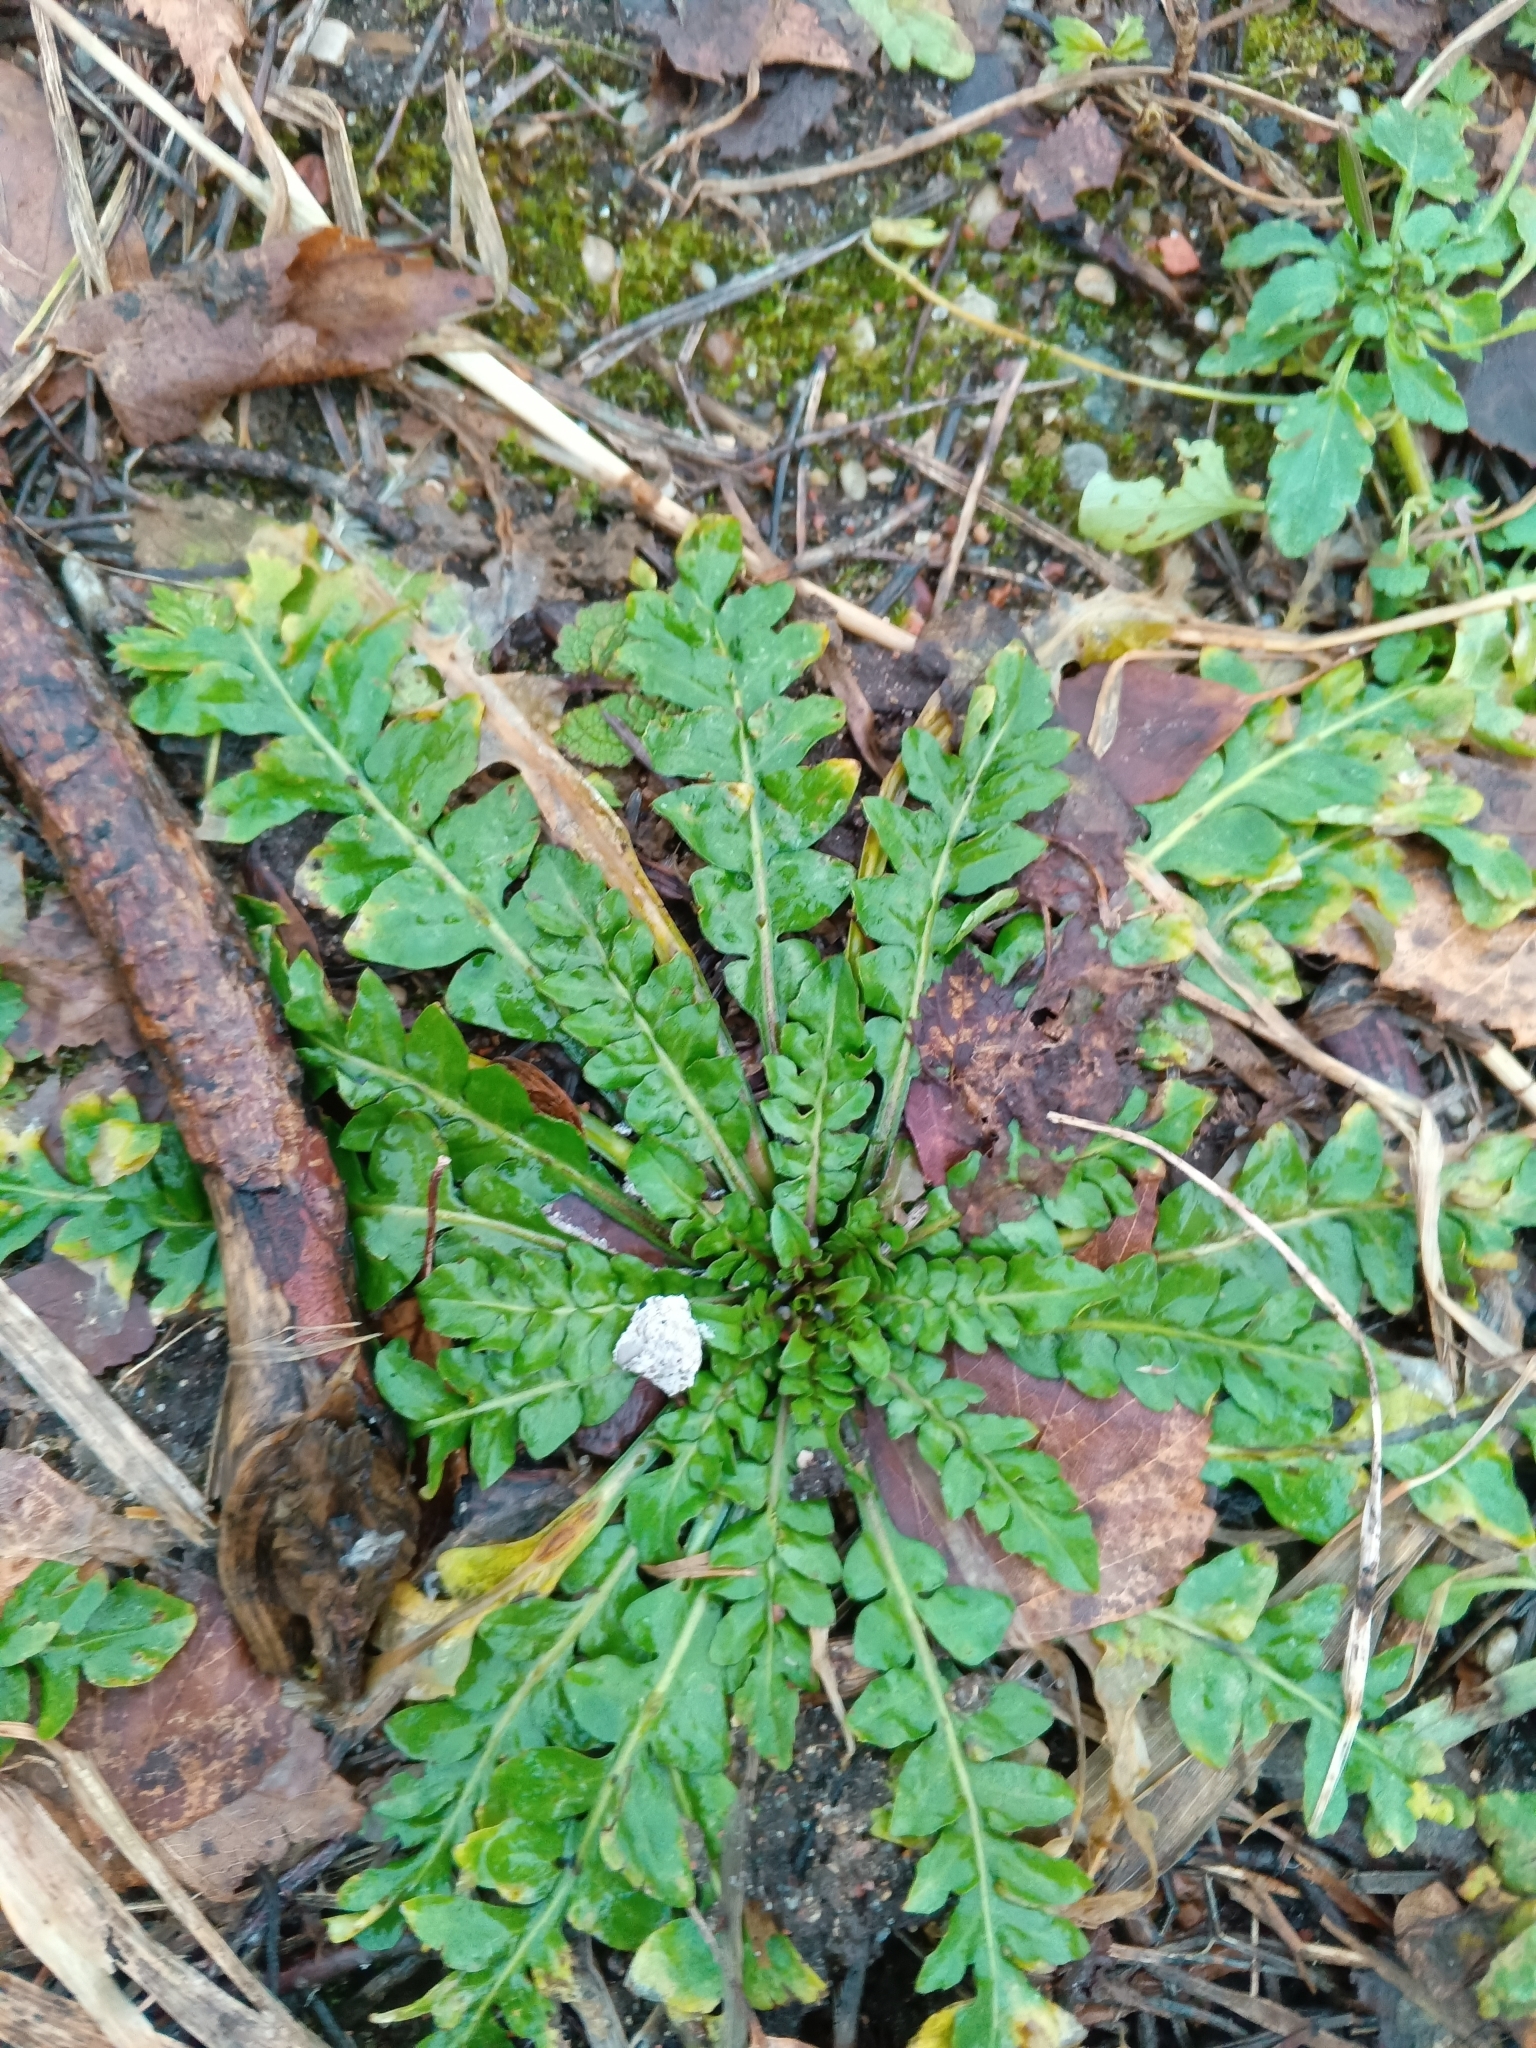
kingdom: Plantae
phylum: Tracheophyta
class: Magnoliopsida
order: Brassicales
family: Brassicaceae
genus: Capsella
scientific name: Capsella bursa-pastoris
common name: Shepherd's purse
